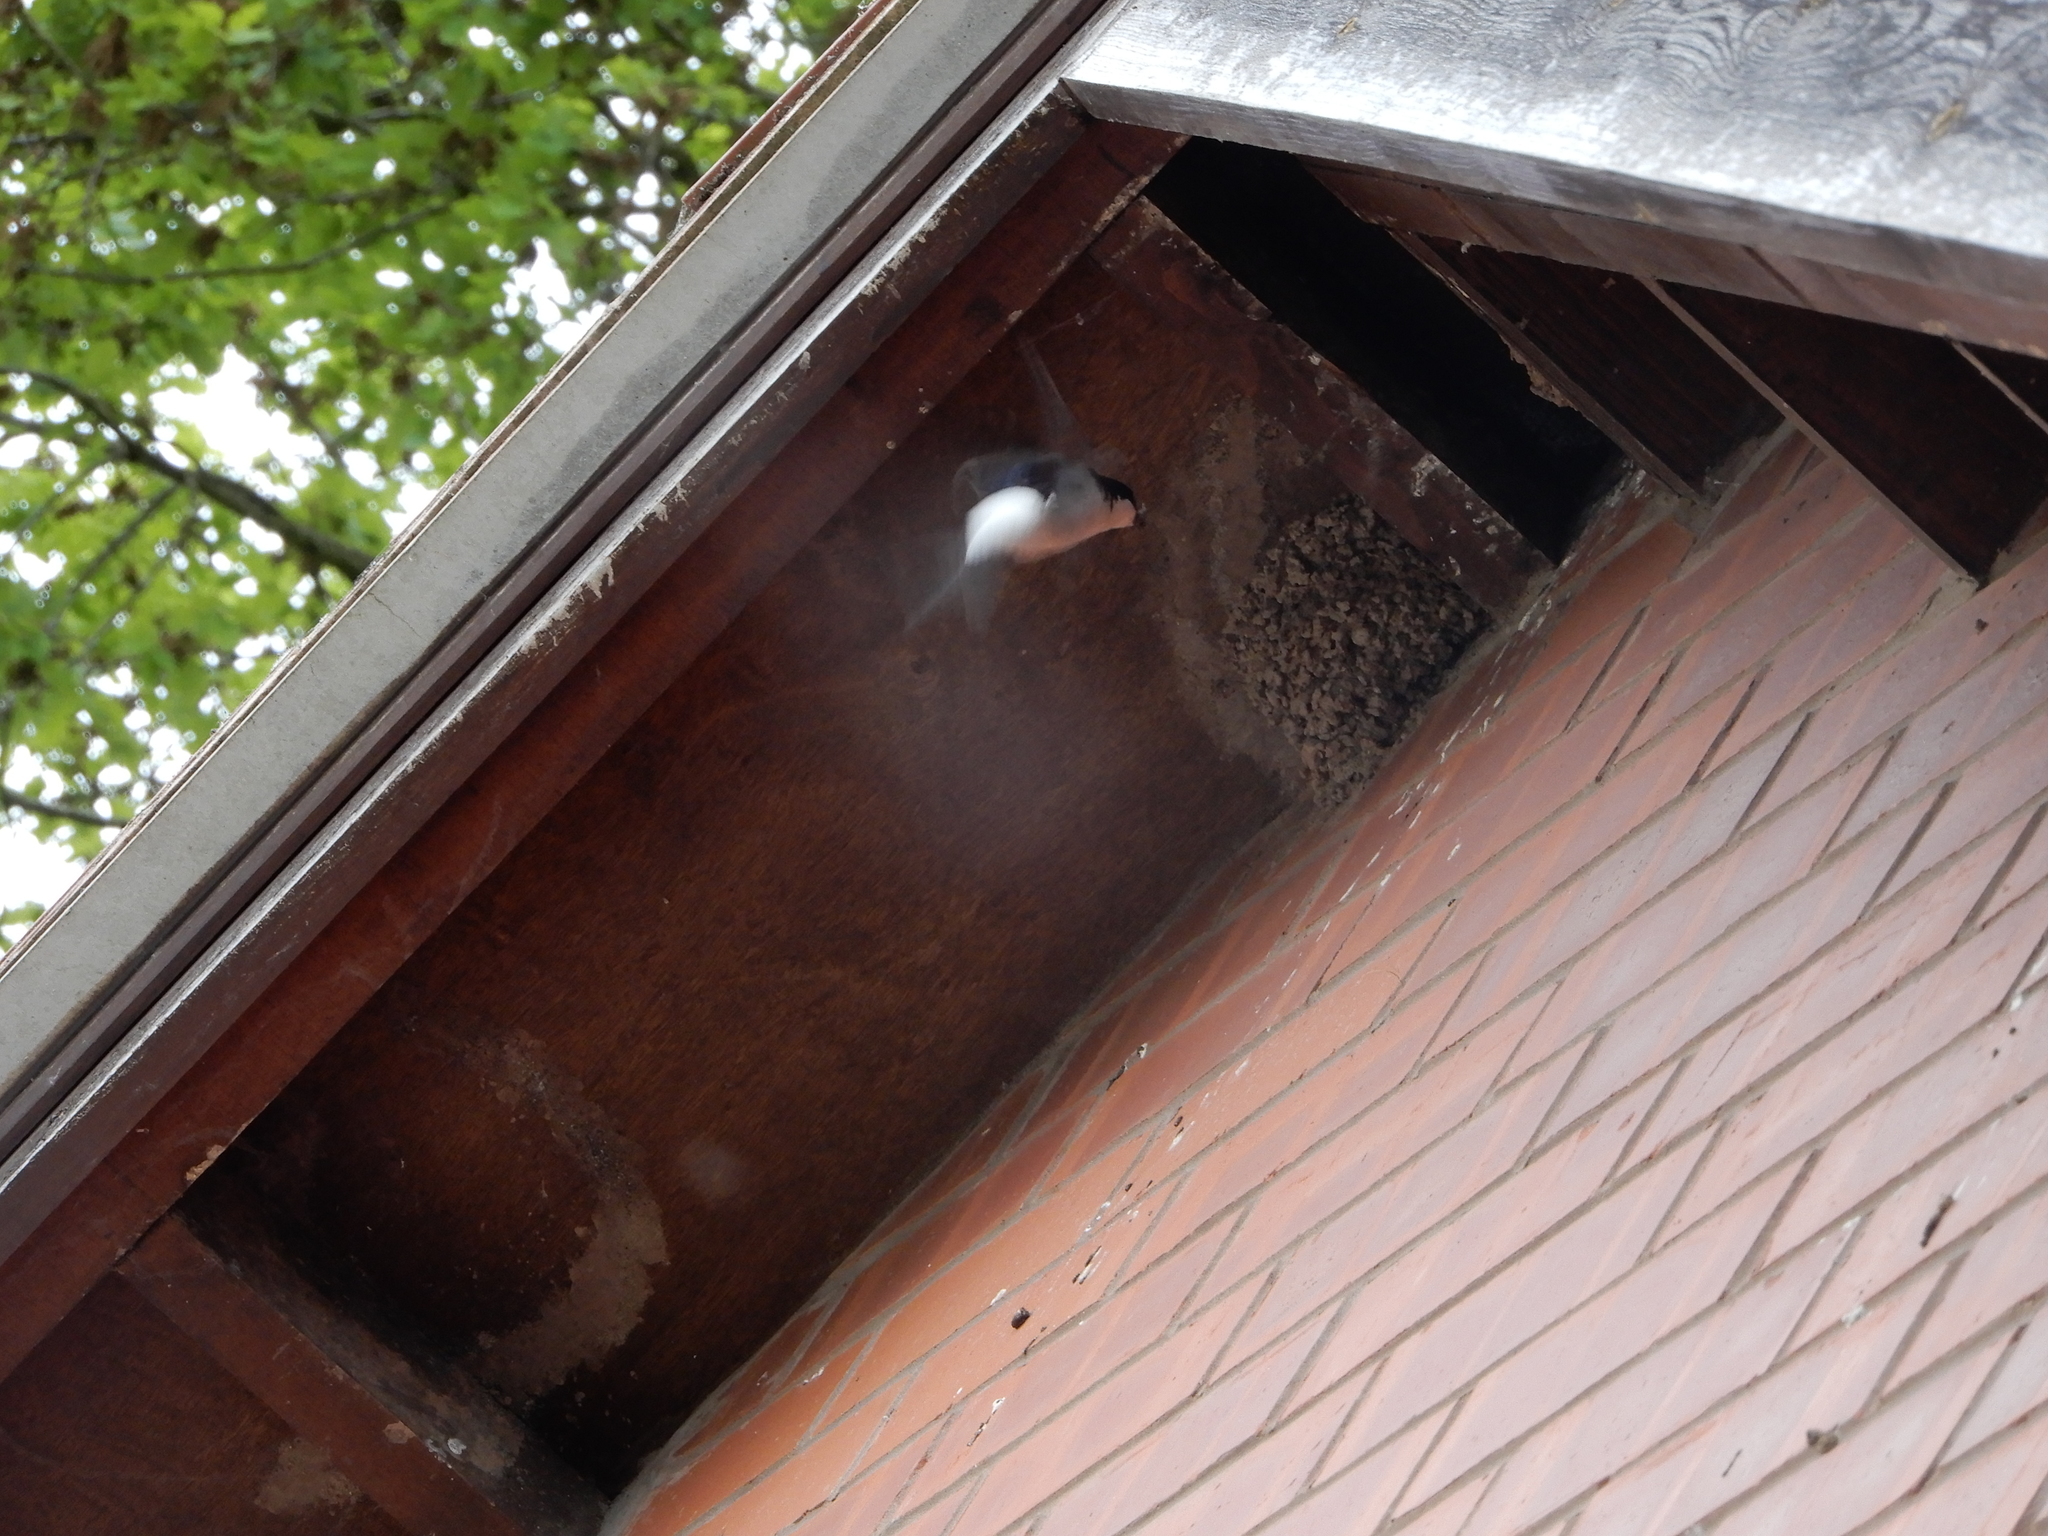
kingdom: Animalia
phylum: Chordata
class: Aves
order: Passeriformes
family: Hirundinidae
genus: Delichon
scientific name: Delichon urbicum
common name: Common house martin
